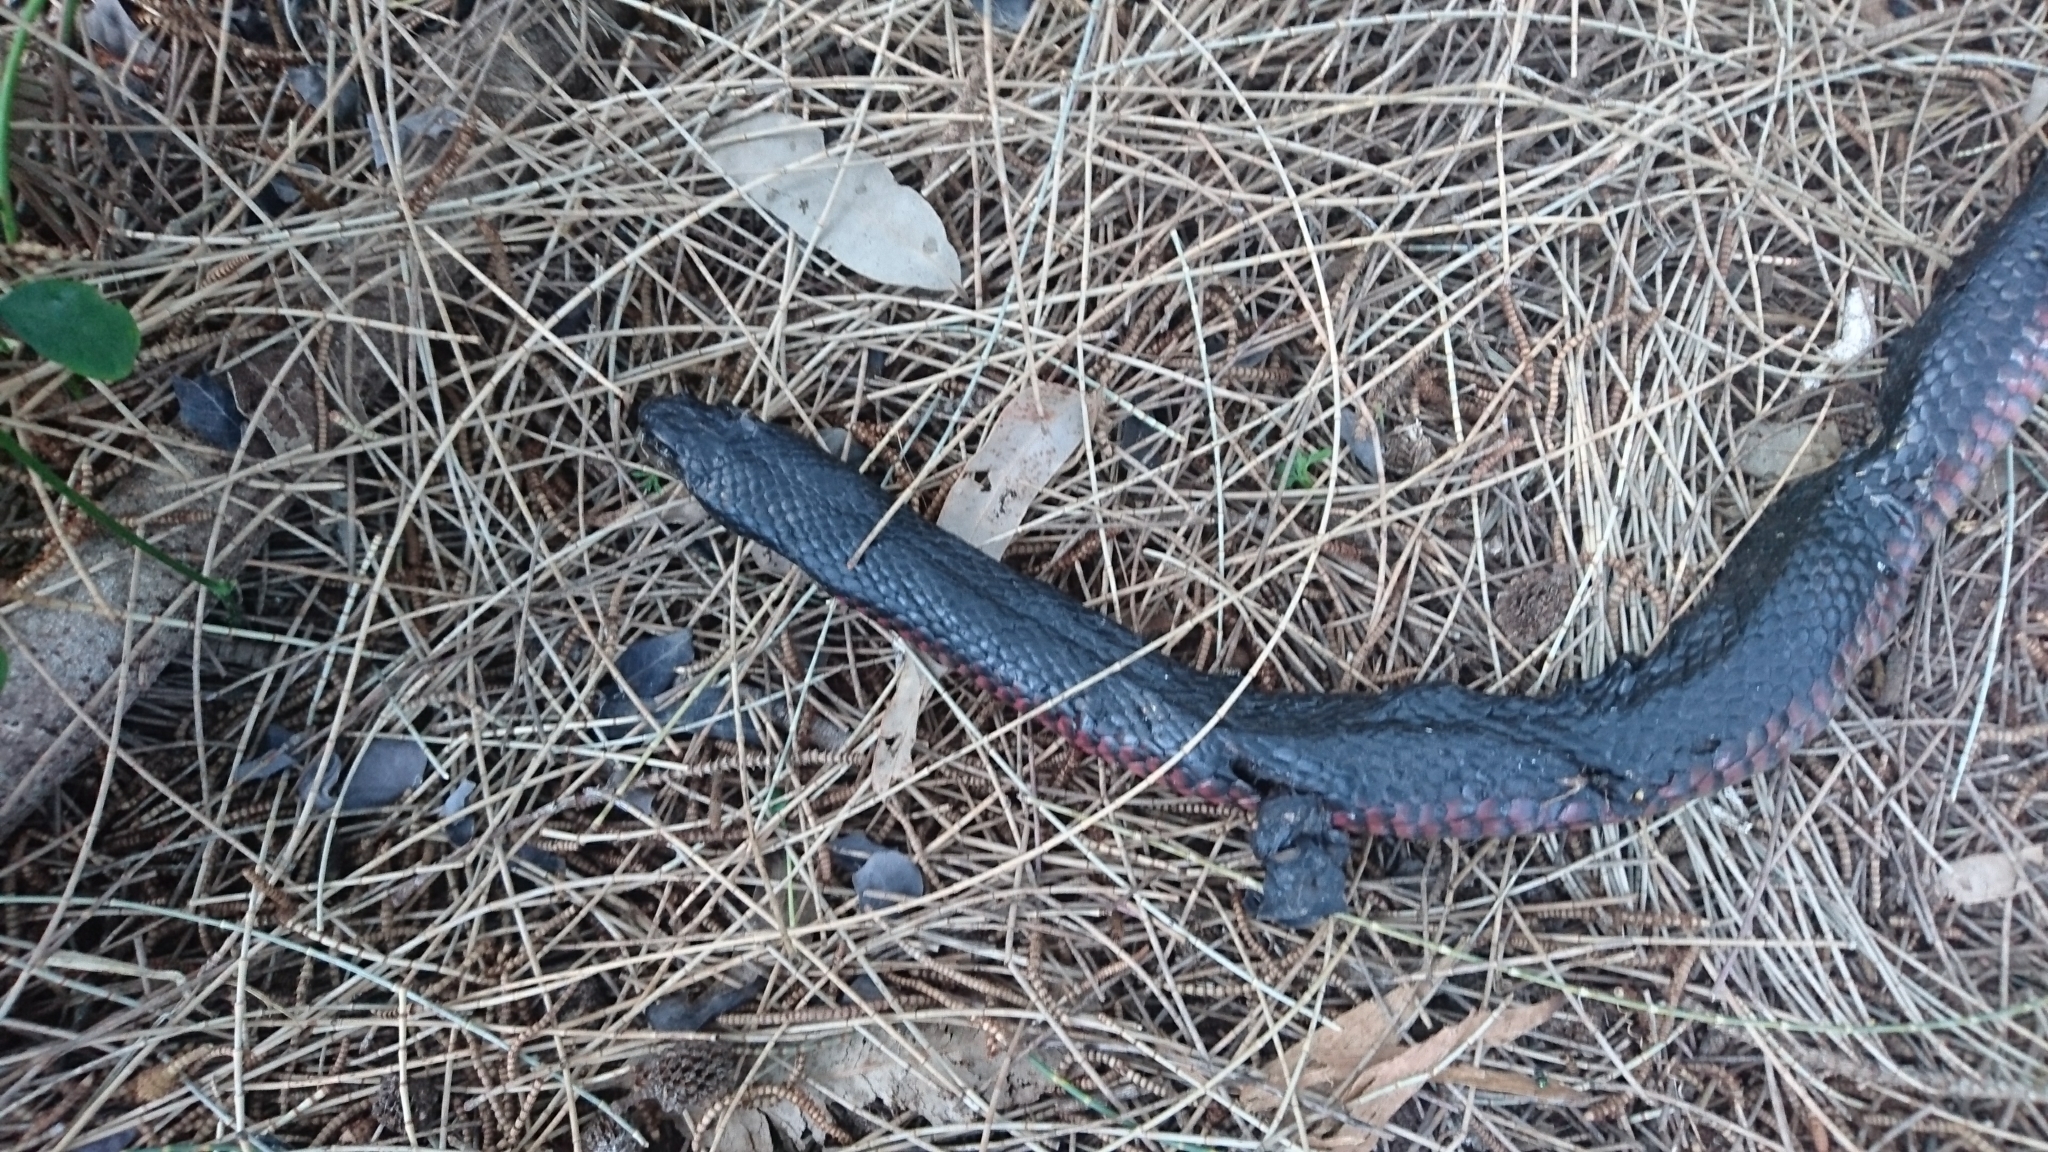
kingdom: Animalia
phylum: Chordata
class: Squamata
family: Elapidae
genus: Pseudechis
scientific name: Pseudechis porphyriacus
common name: Australian black snake
